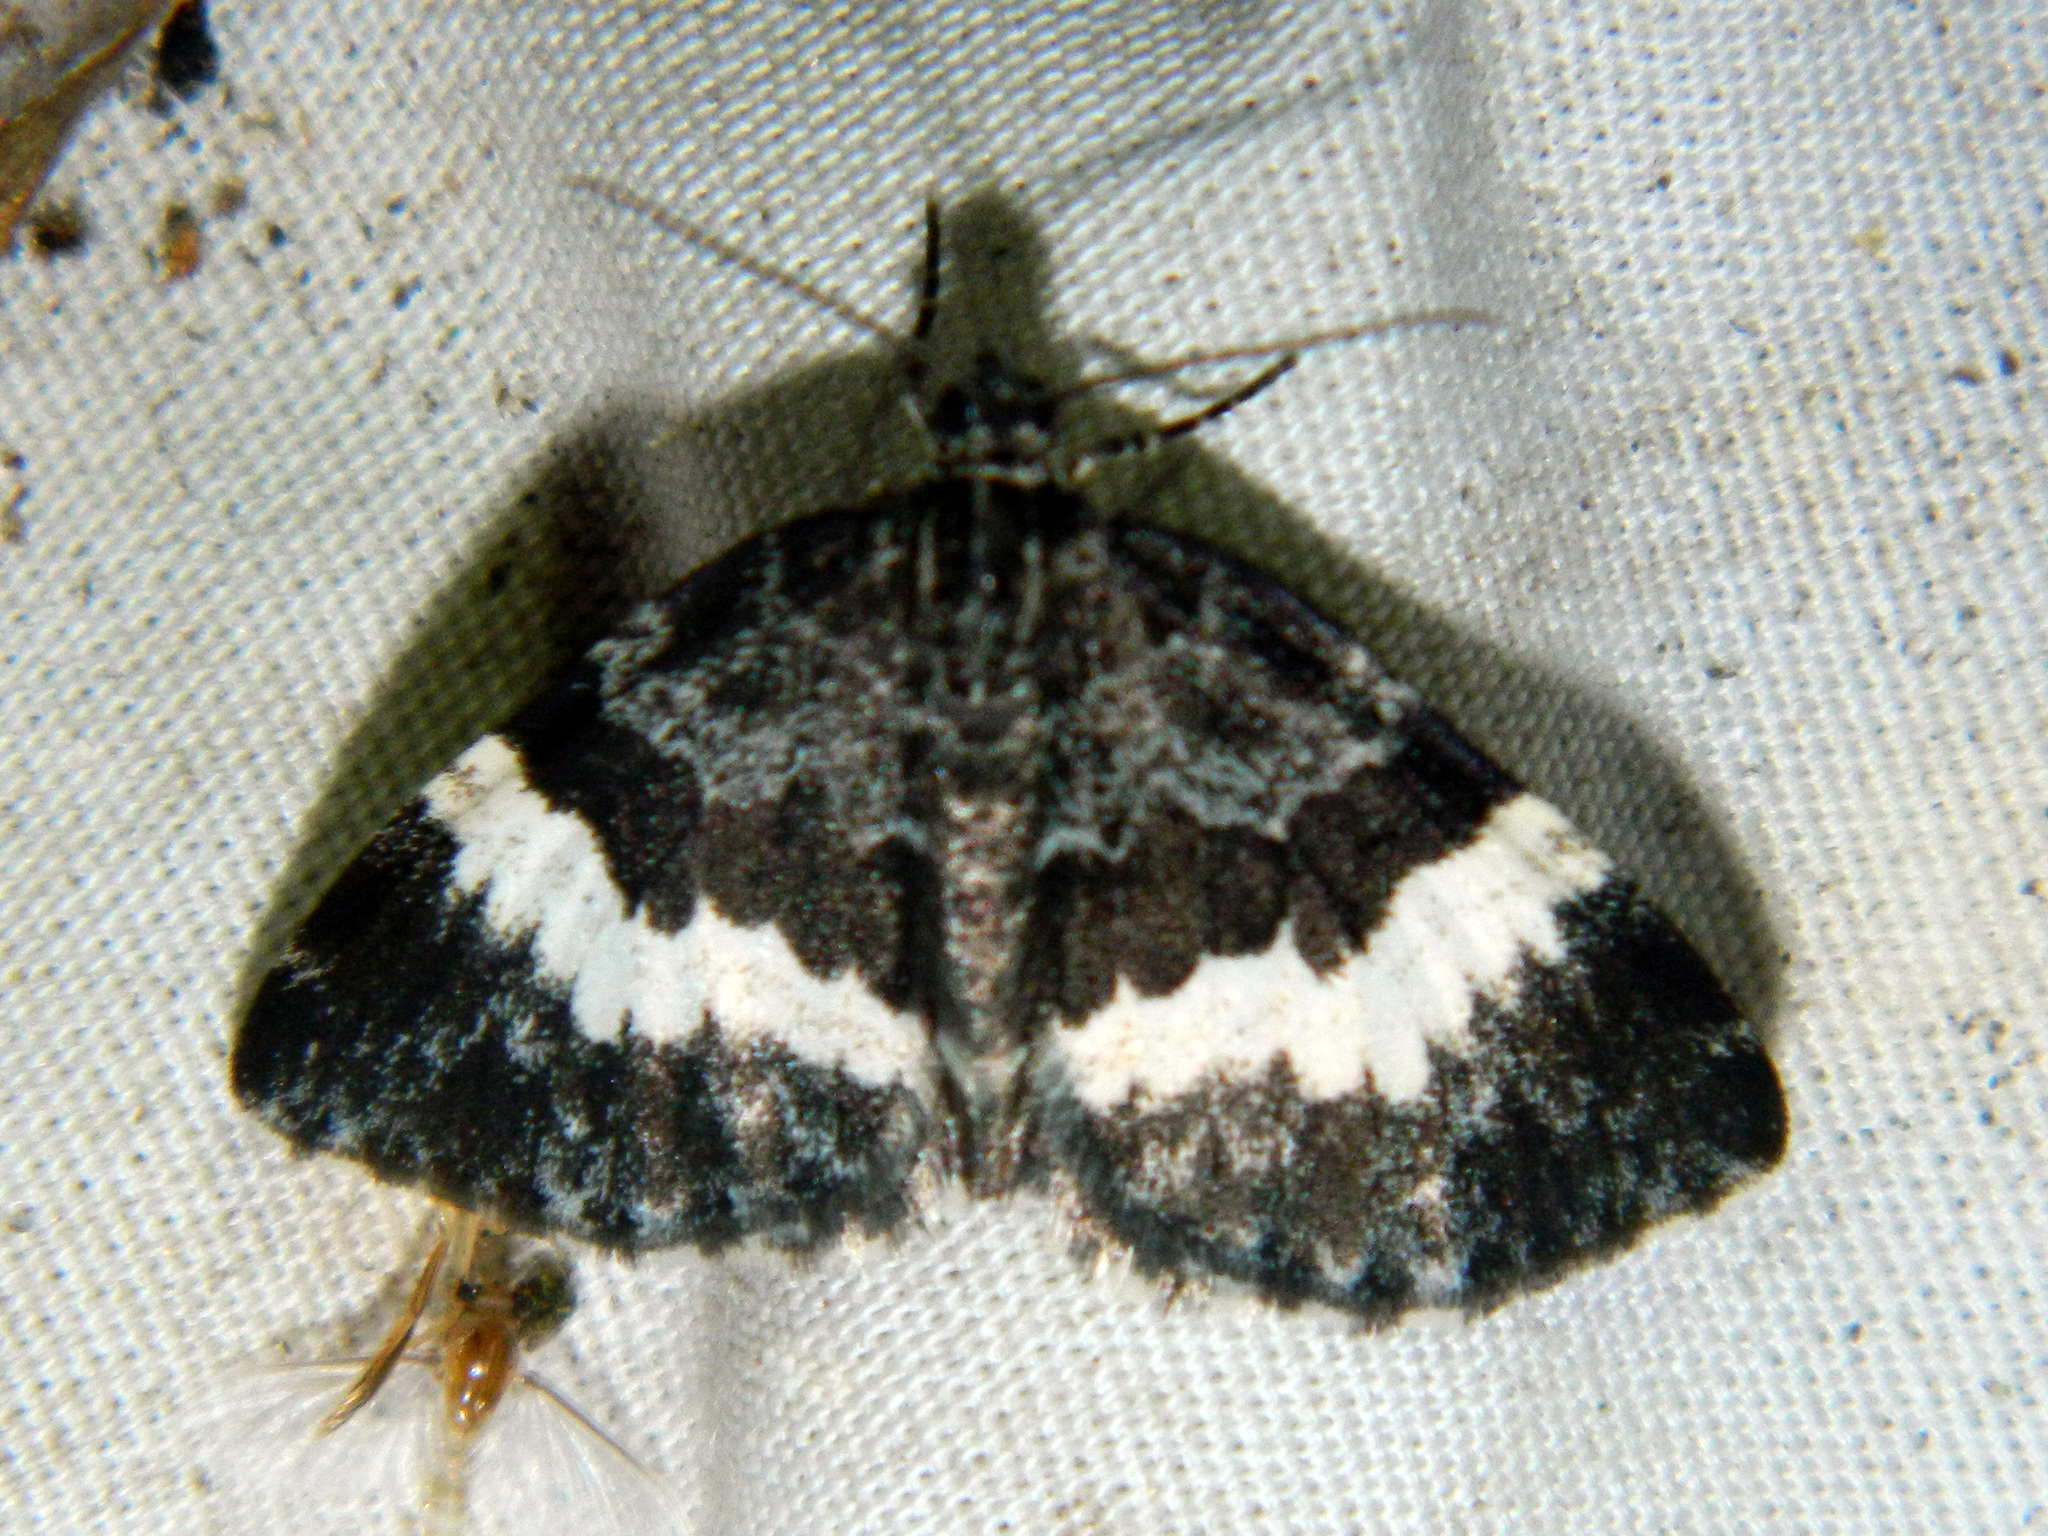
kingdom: Animalia
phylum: Arthropoda
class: Insecta
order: Lepidoptera
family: Geometridae
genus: Spargania
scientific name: Spargania luctuata
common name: White-banded carpet
